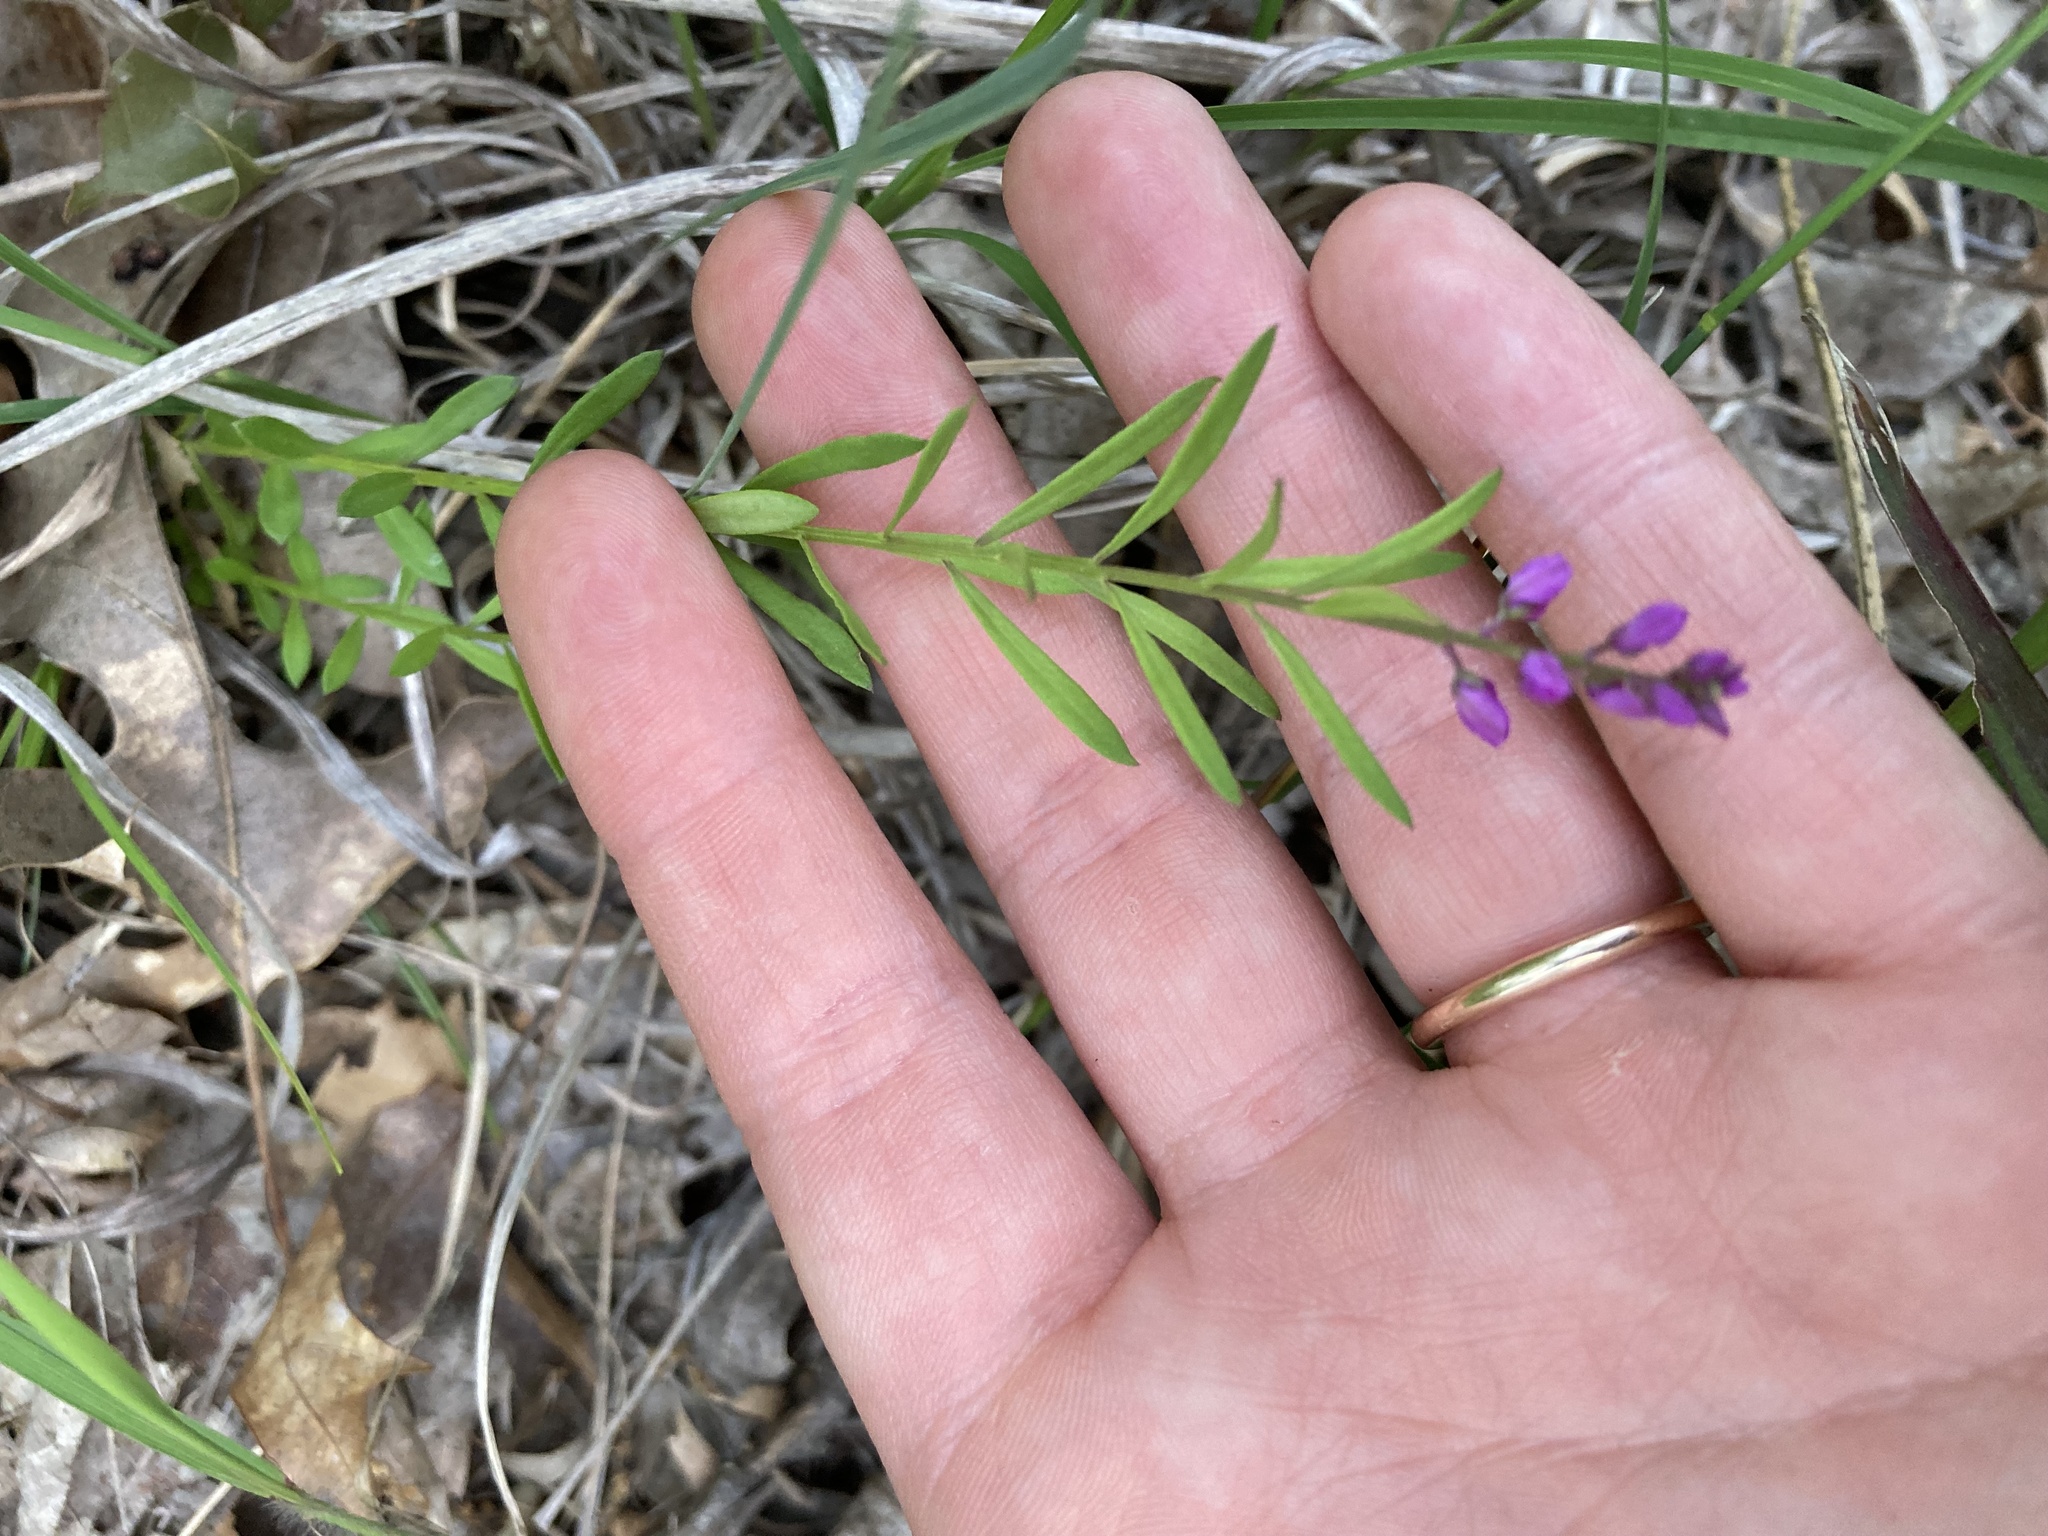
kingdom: Plantae
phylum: Tracheophyta
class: Magnoliopsida
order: Fabales
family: Polygalaceae
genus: Polygala
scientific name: Polygala polygama
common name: Bitter milkwort
